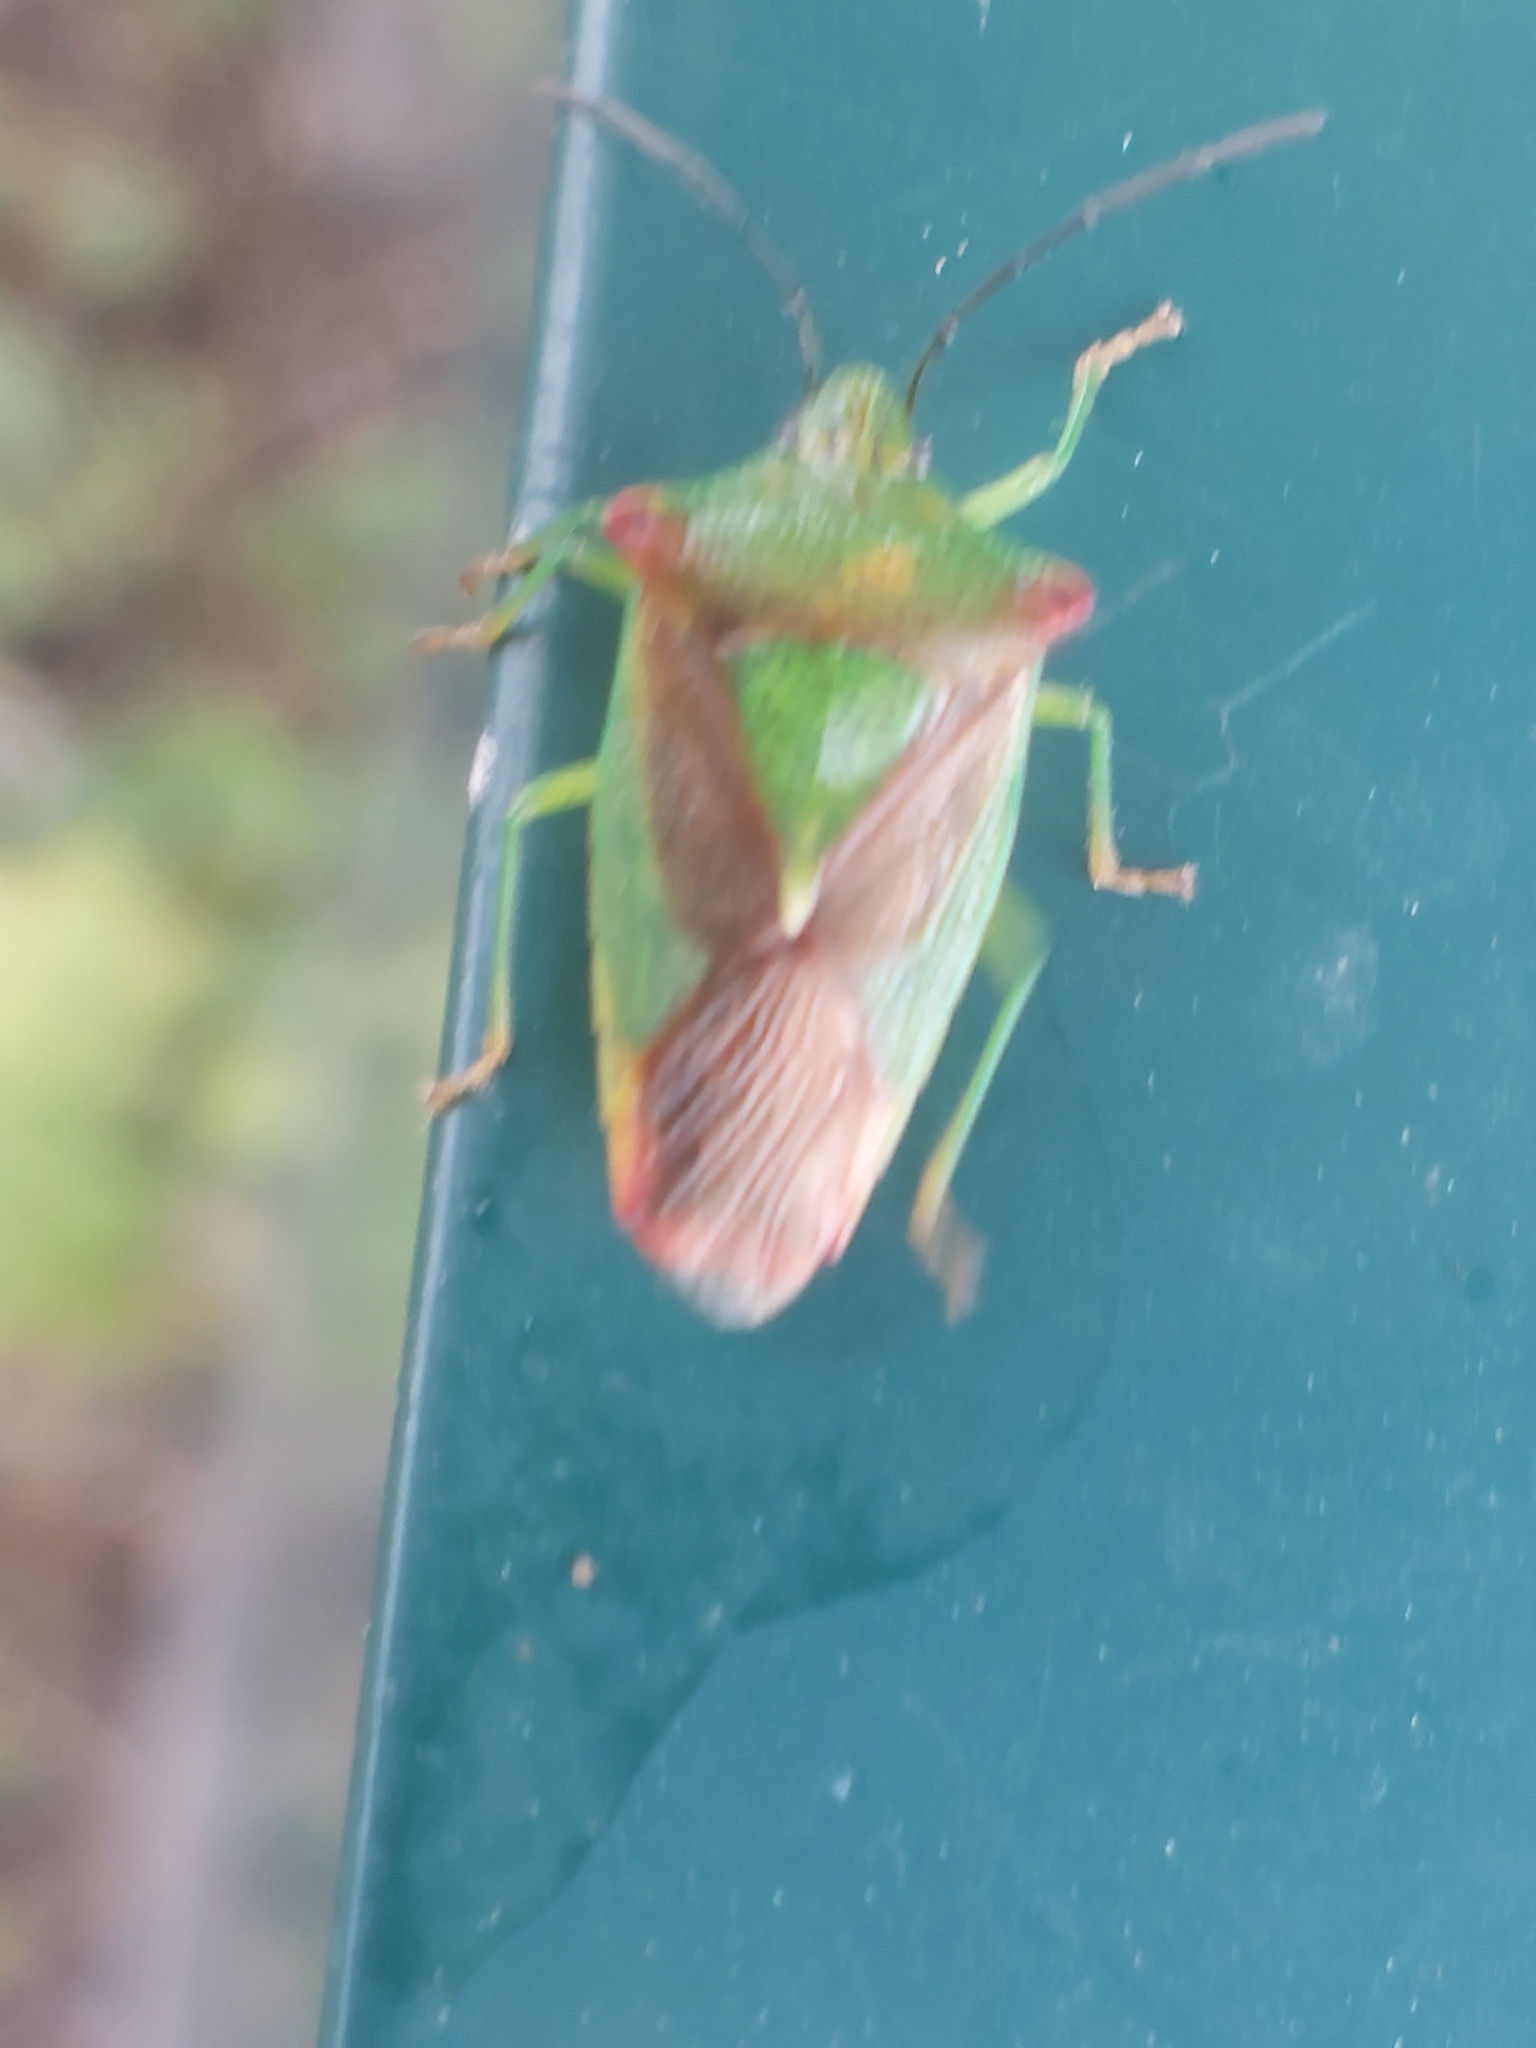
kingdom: Animalia
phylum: Arthropoda
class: Insecta
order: Hemiptera
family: Acanthosomatidae
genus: Acanthosoma
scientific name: Acanthosoma haemorrhoidale
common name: Hawthorn shieldbug
